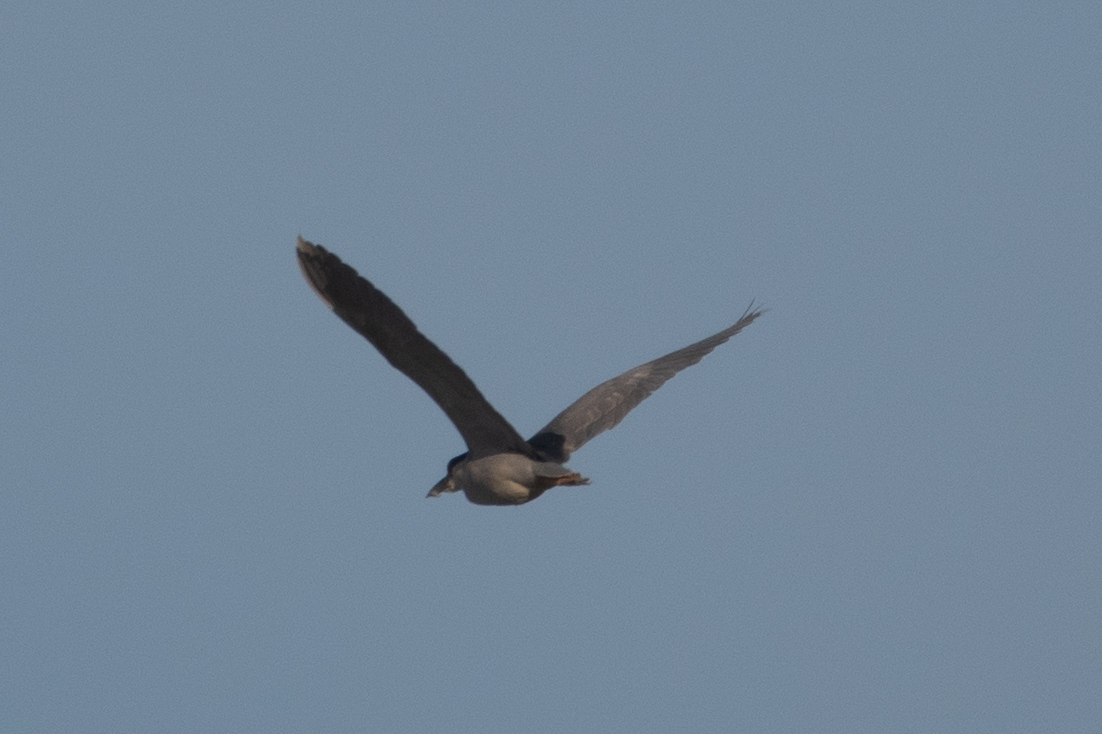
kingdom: Animalia
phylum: Chordata
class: Aves
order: Pelecaniformes
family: Ardeidae
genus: Nycticorax
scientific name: Nycticorax nycticorax
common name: Black-crowned night heron
